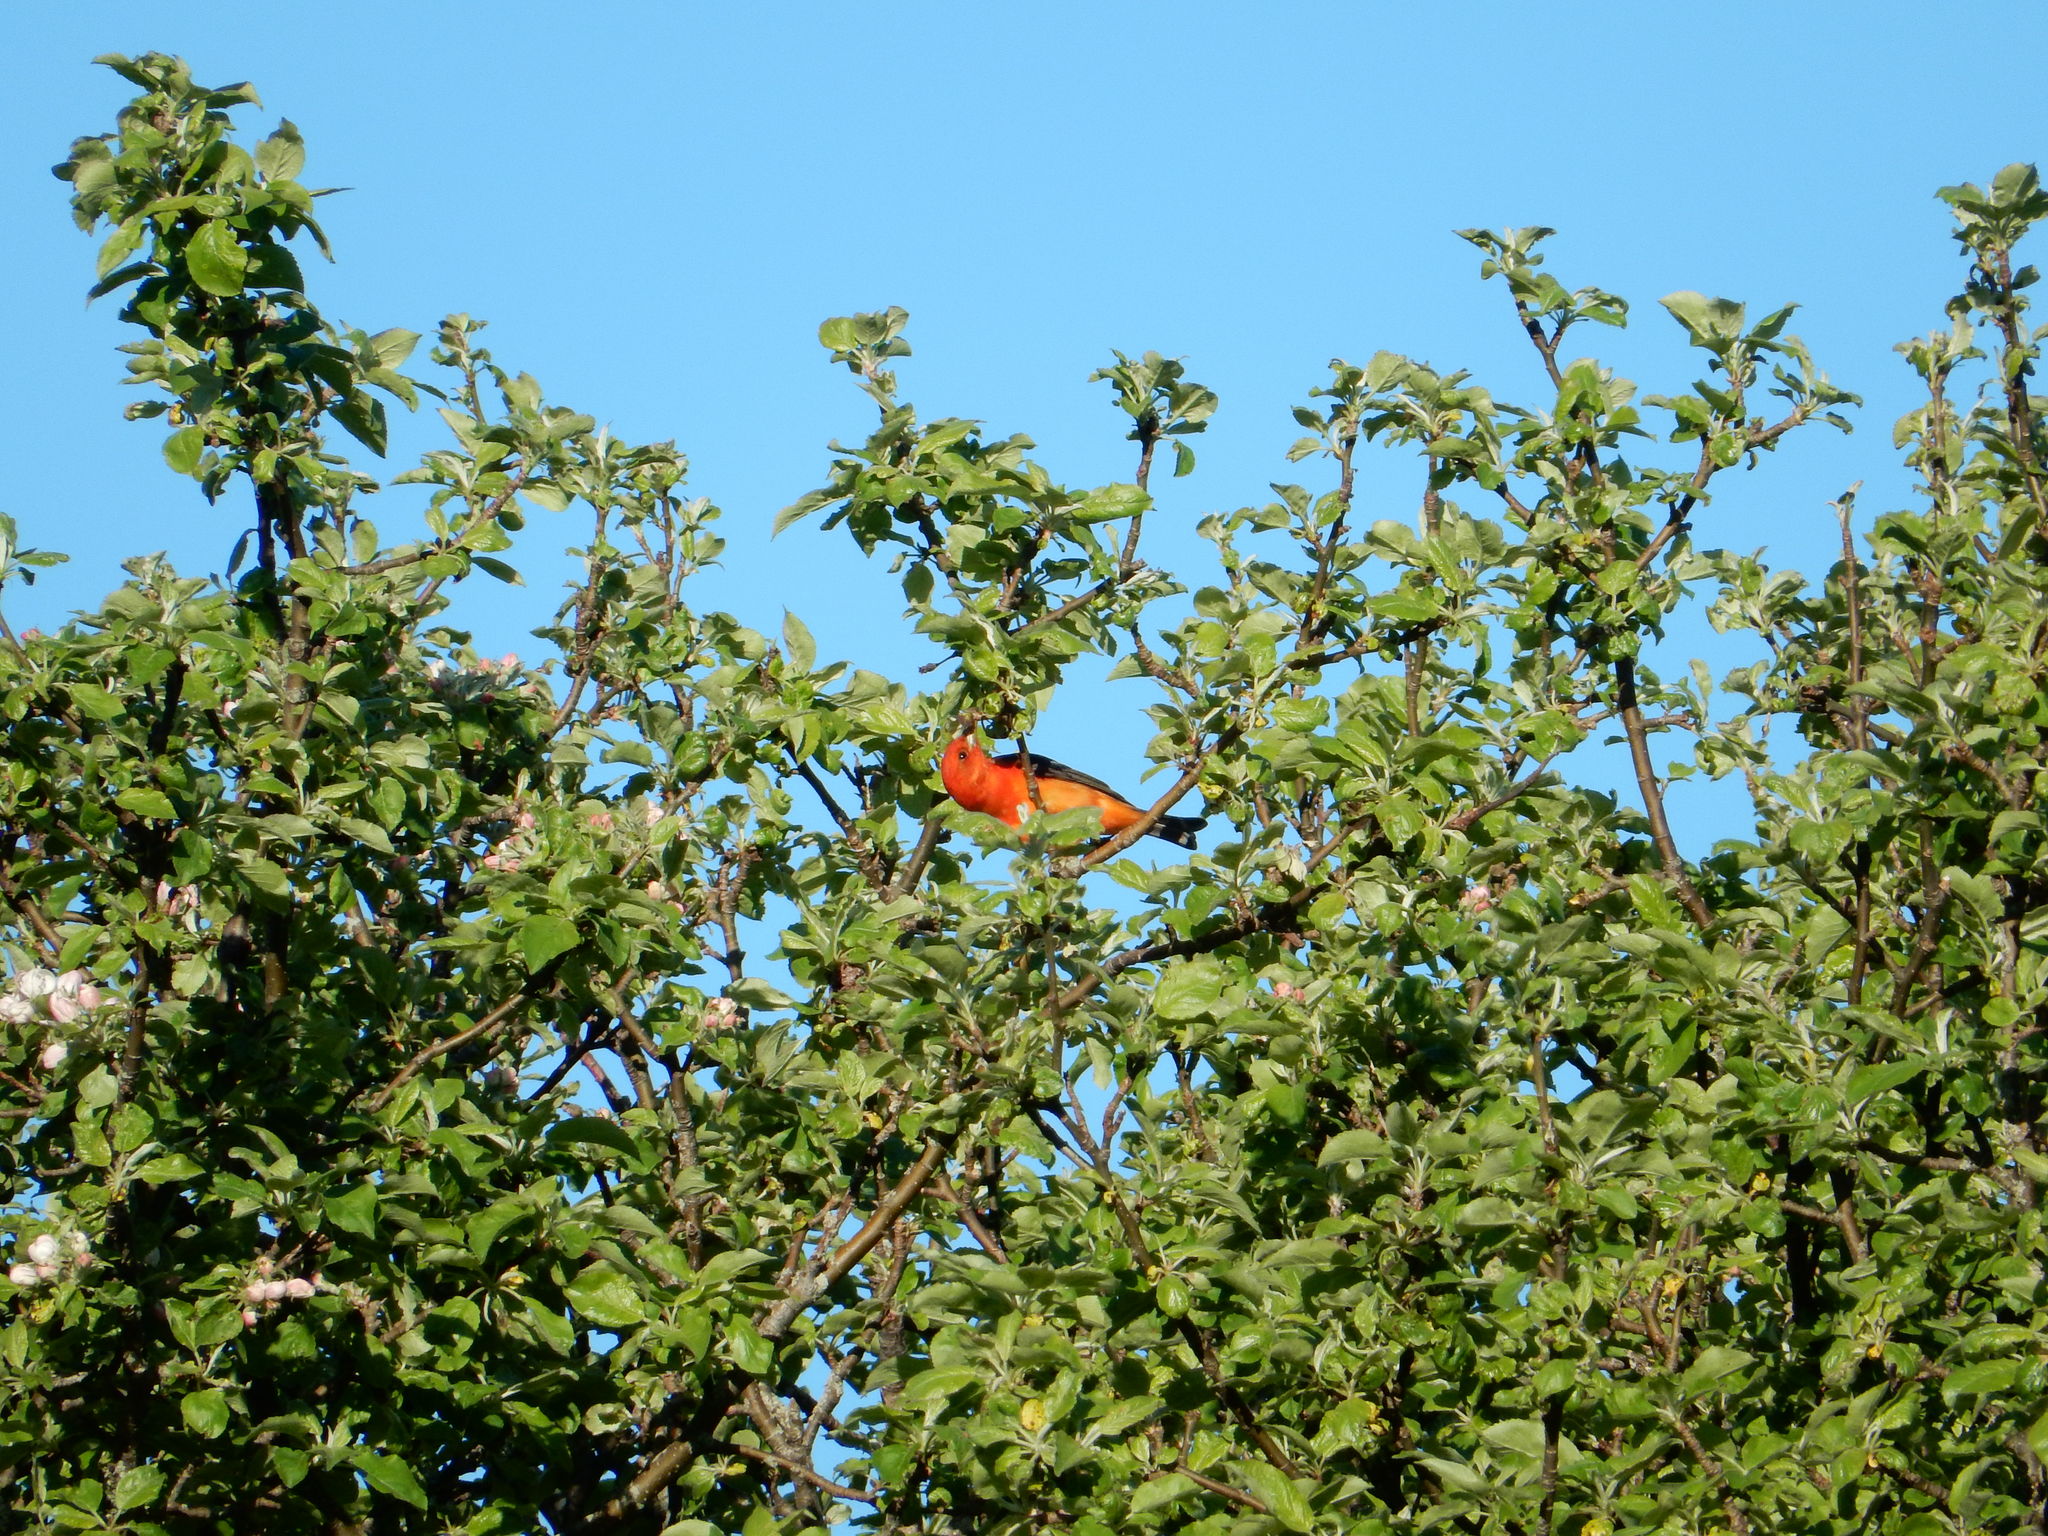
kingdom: Animalia
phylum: Chordata
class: Aves
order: Passeriformes
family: Cardinalidae
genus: Piranga
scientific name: Piranga olivacea
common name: Scarlet tanager
